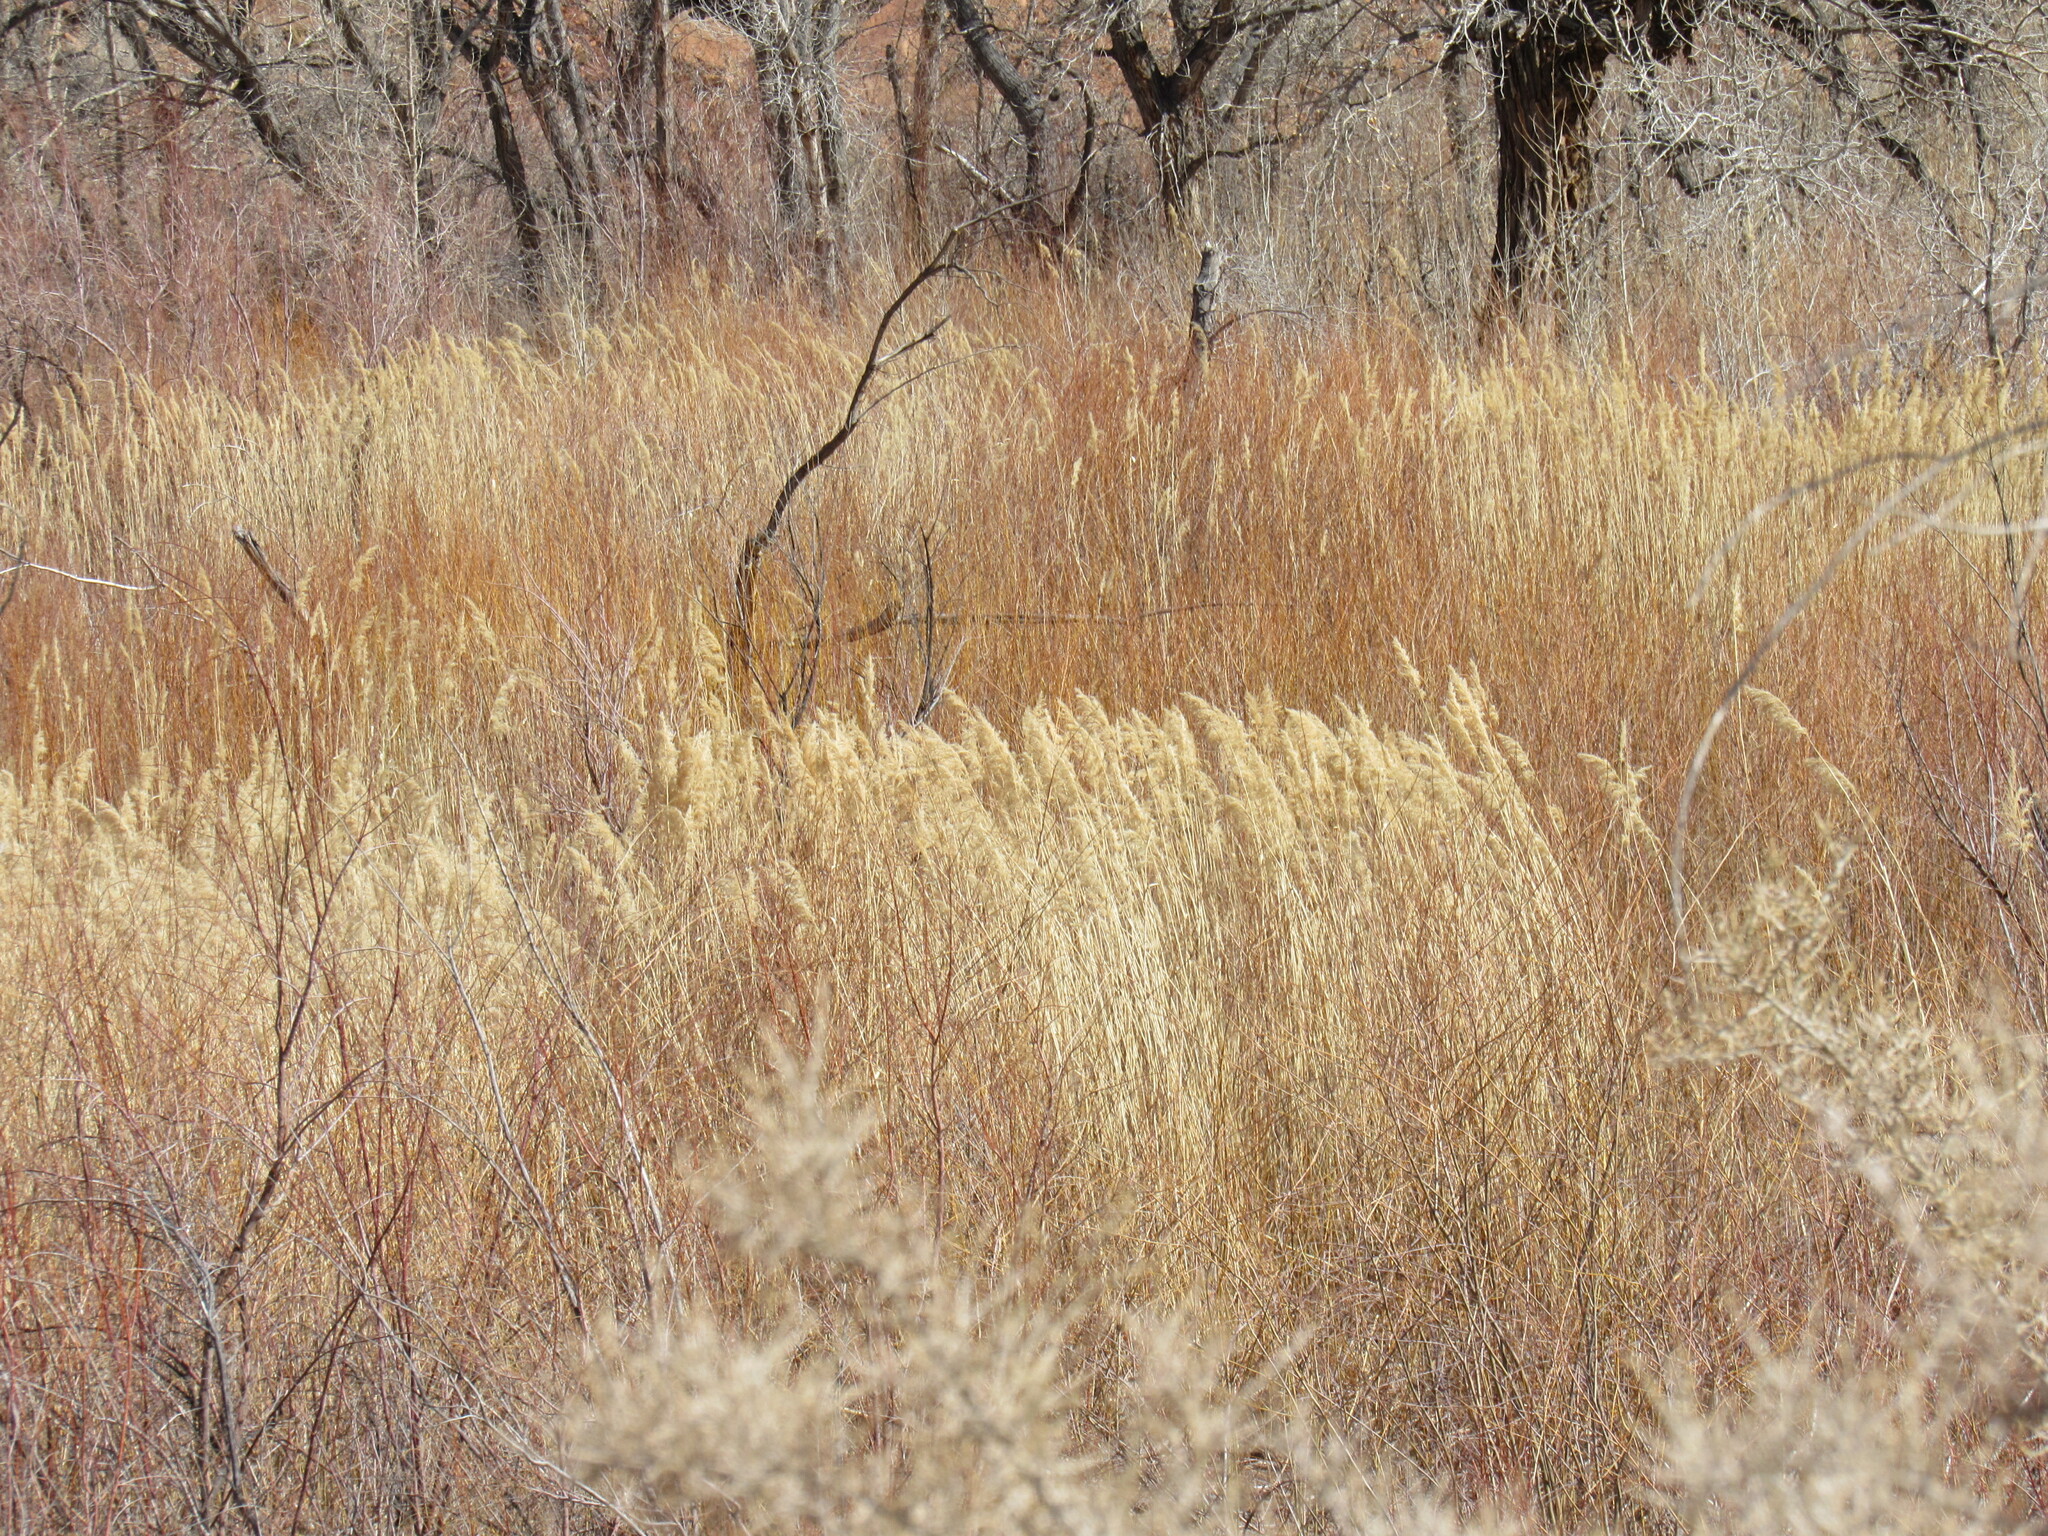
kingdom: Plantae
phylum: Tracheophyta
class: Liliopsida
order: Poales
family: Poaceae
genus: Phragmites
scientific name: Phragmites australis
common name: Common reed
